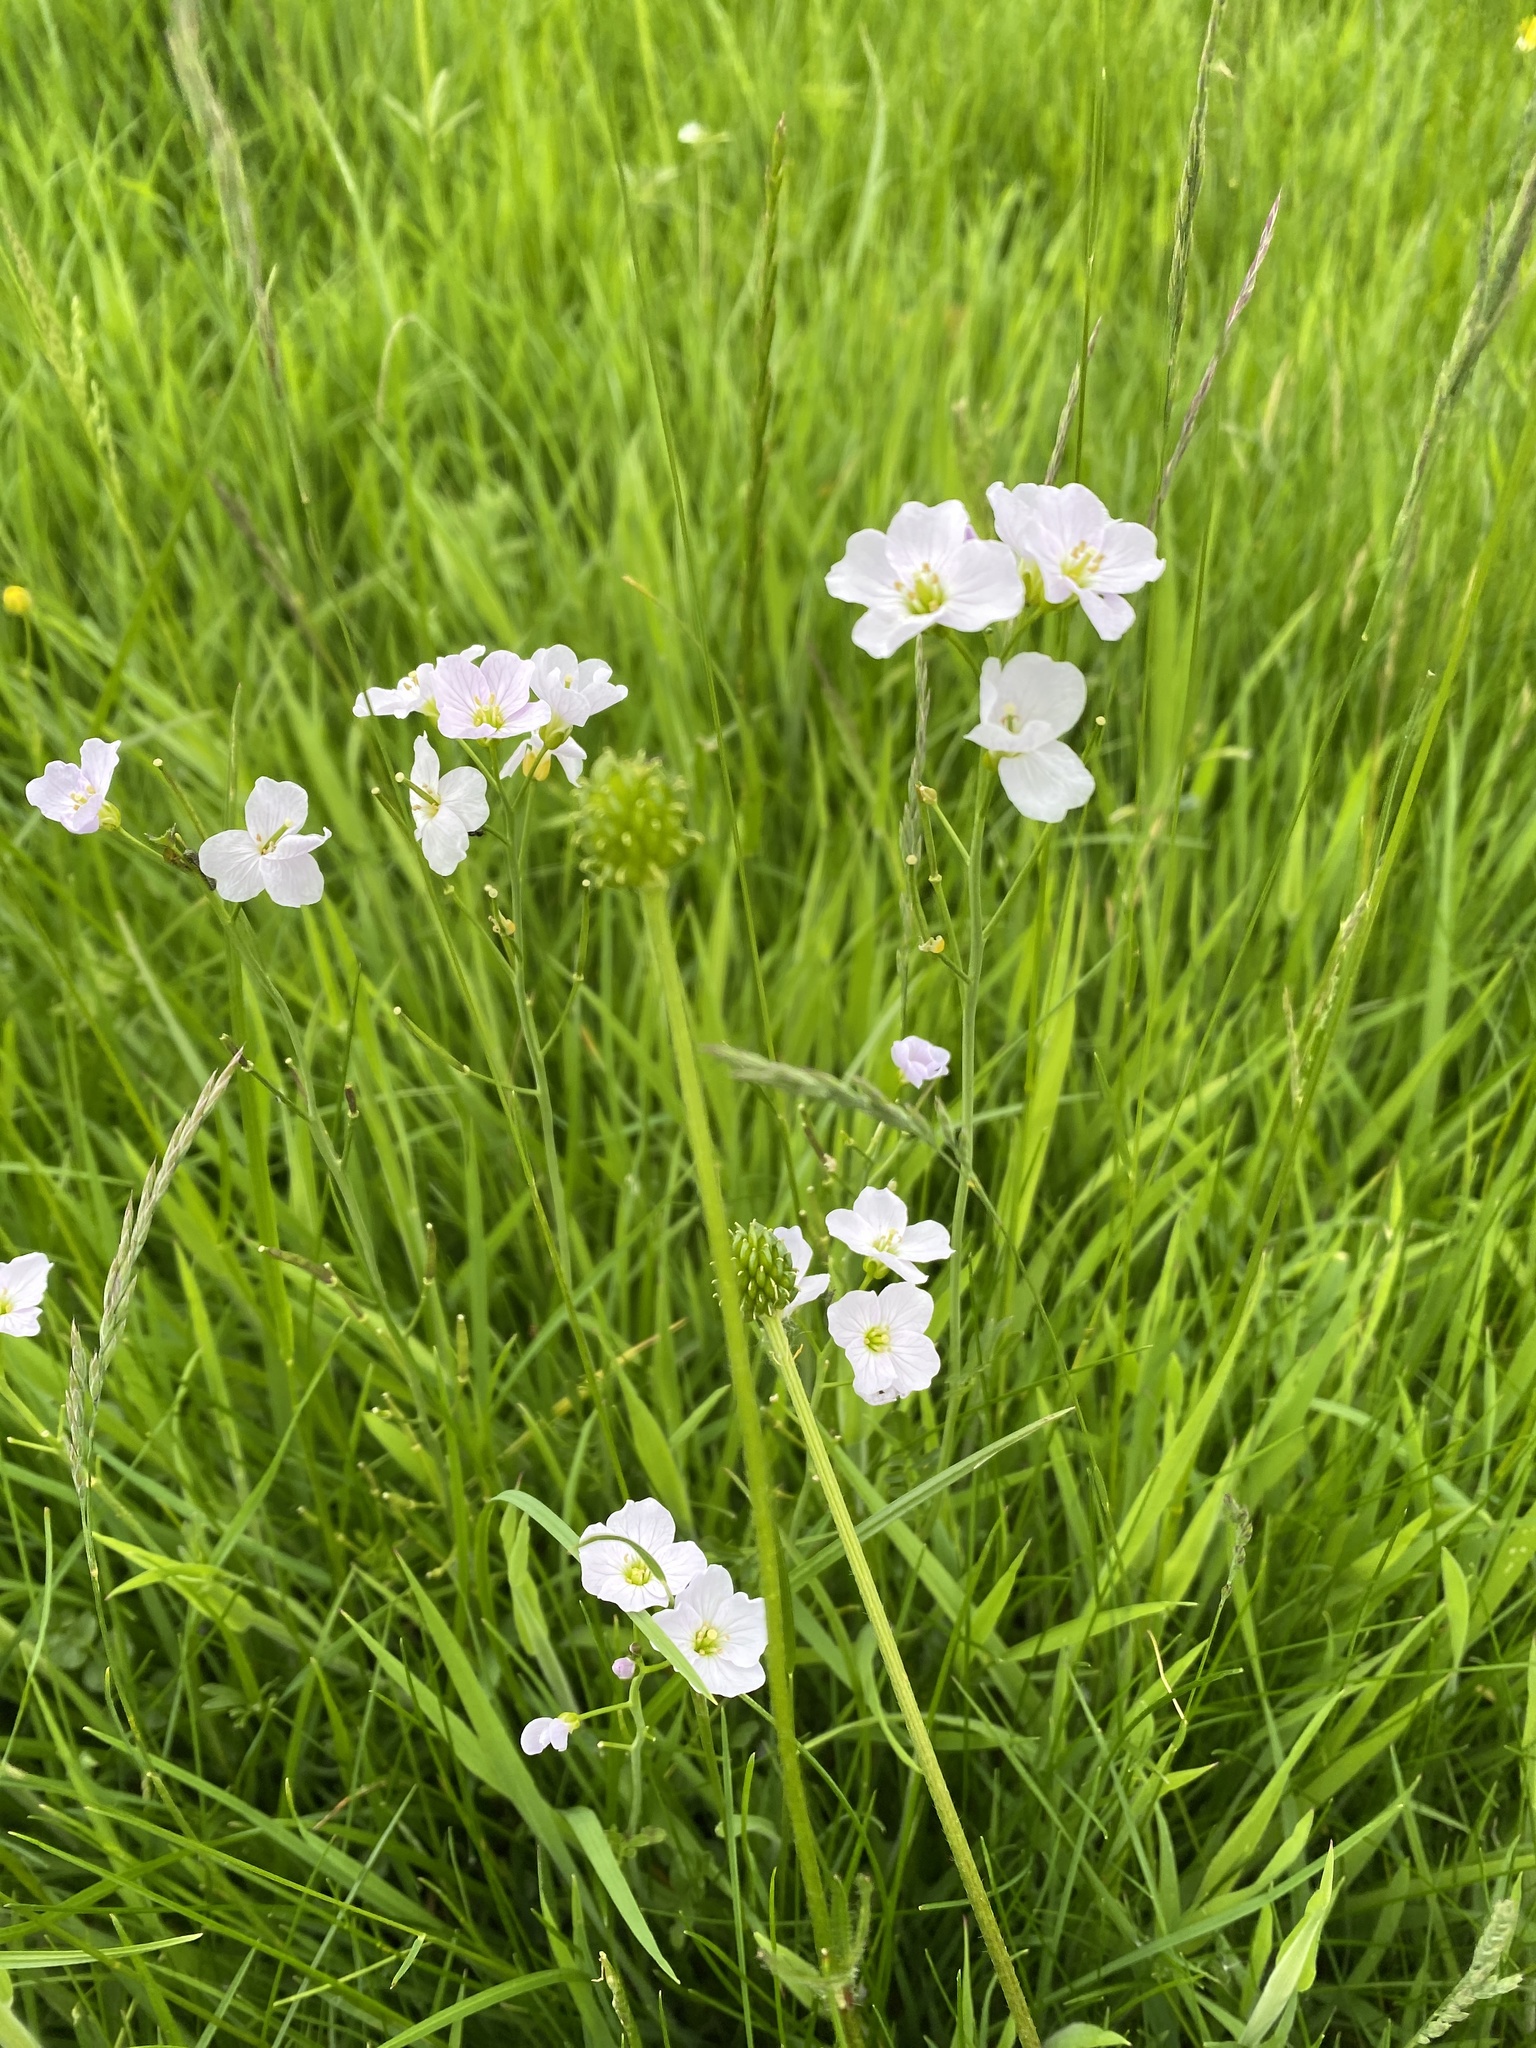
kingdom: Plantae
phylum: Tracheophyta
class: Magnoliopsida
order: Brassicales
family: Brassicaceae
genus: Cardamine
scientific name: Cardamine pratensis
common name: Cuckoo flower
